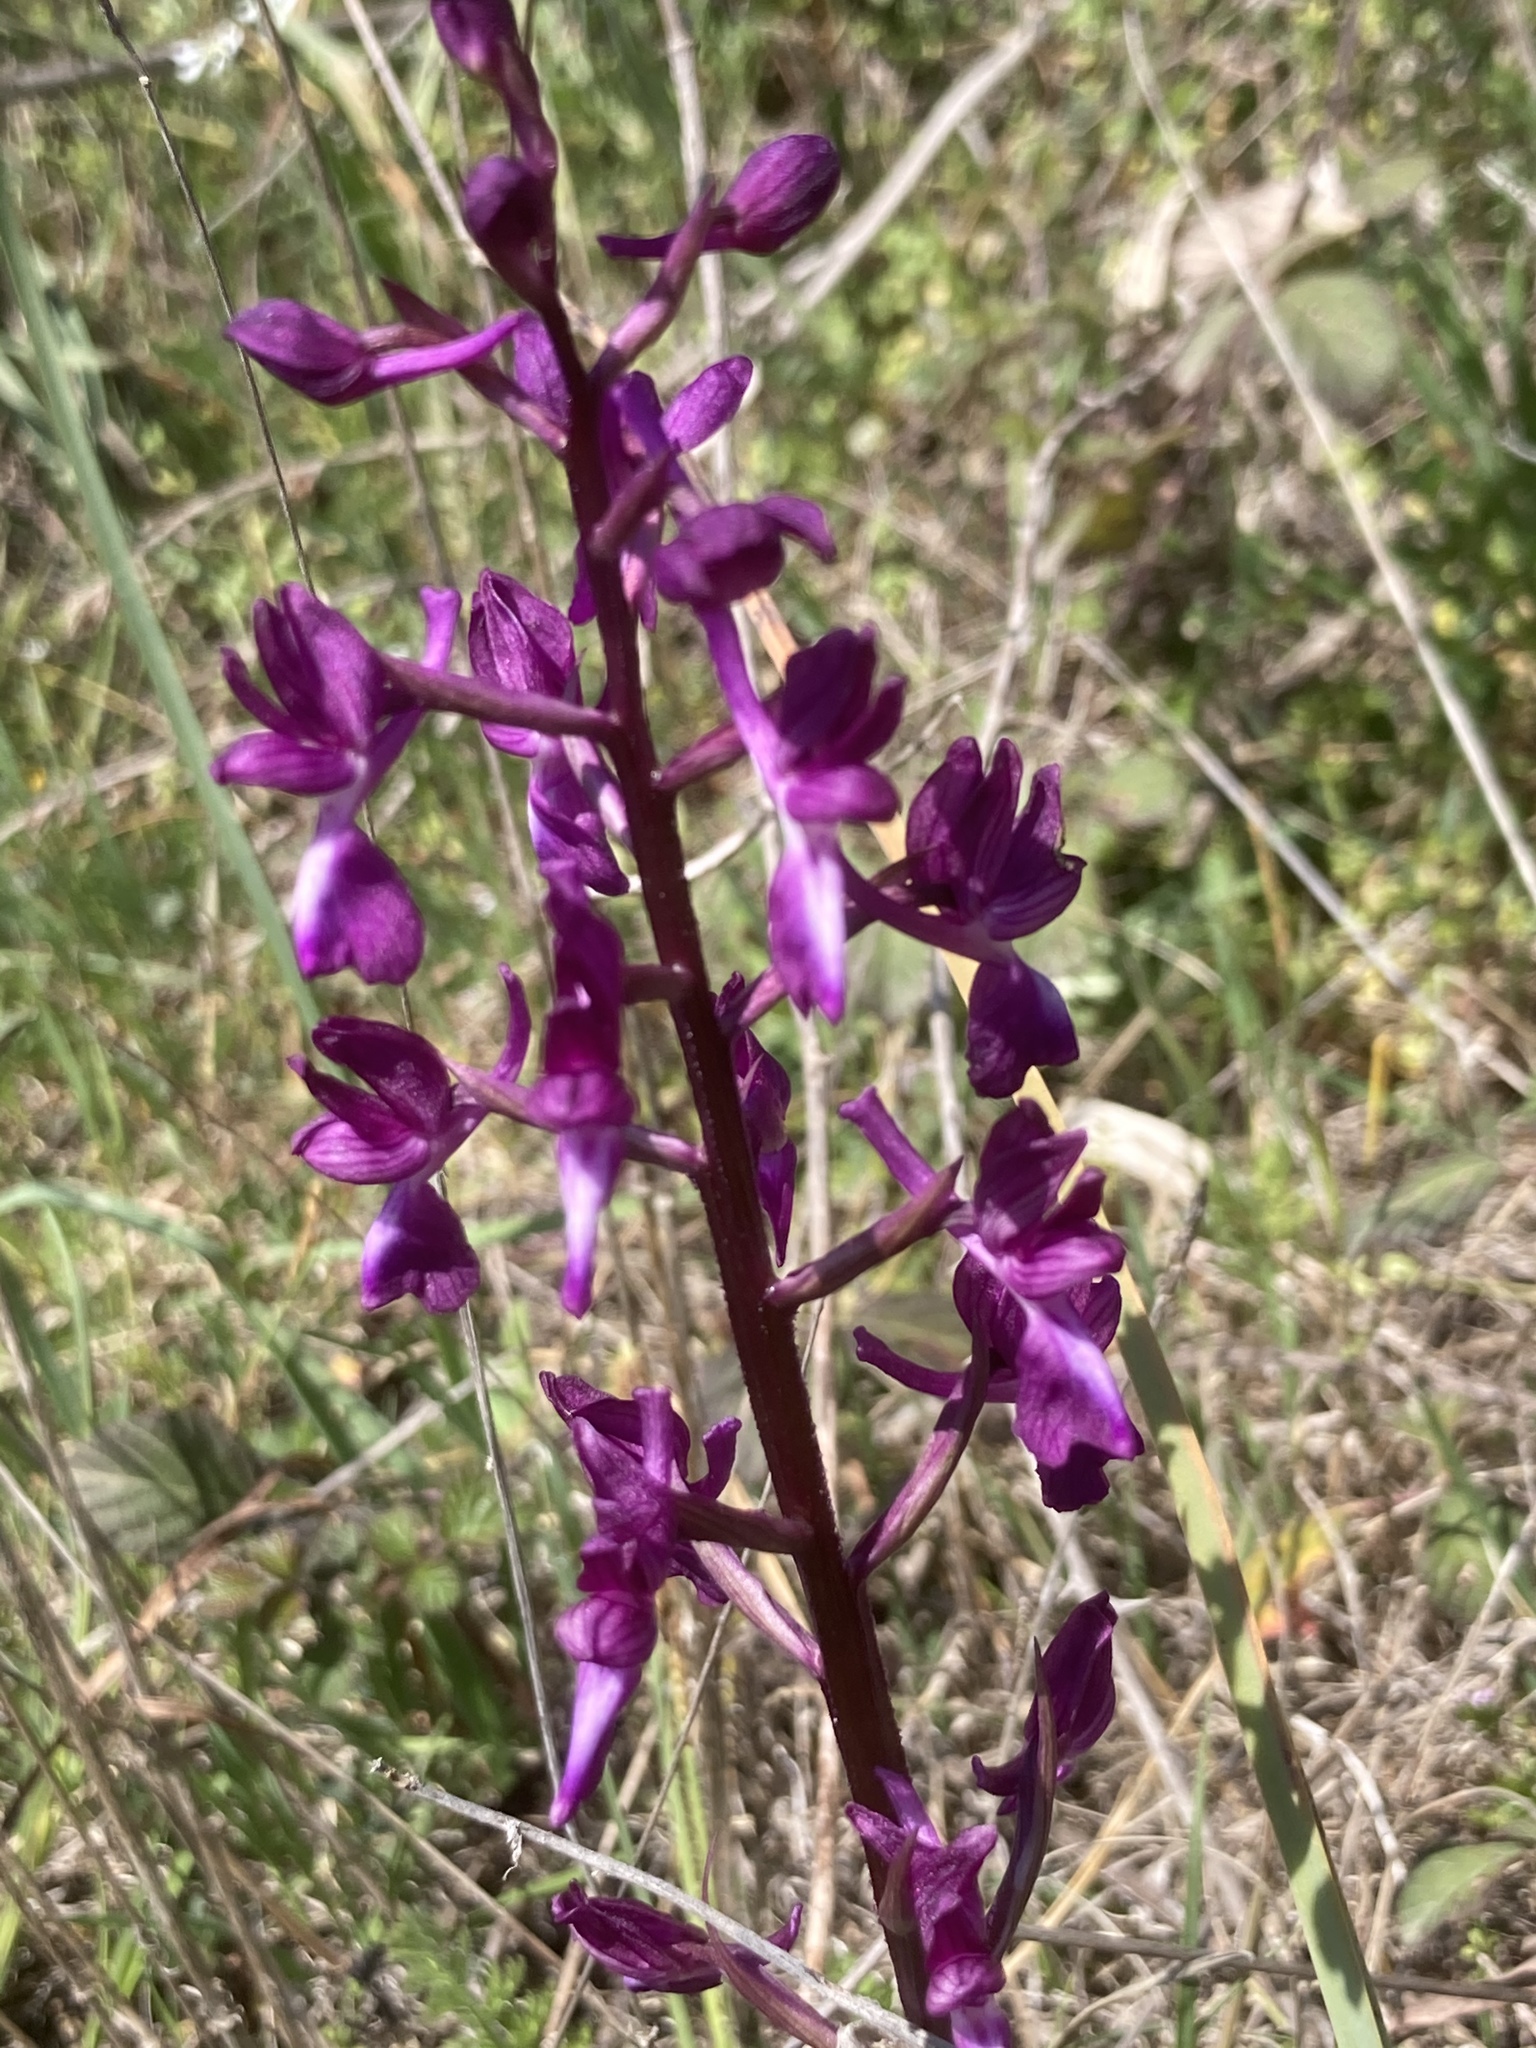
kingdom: Plantae
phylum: Tracheophyta
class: Liliopsida
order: Asparagales
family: Orchidaceae
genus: Anacamptis
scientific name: Anacamptis laxiflora
